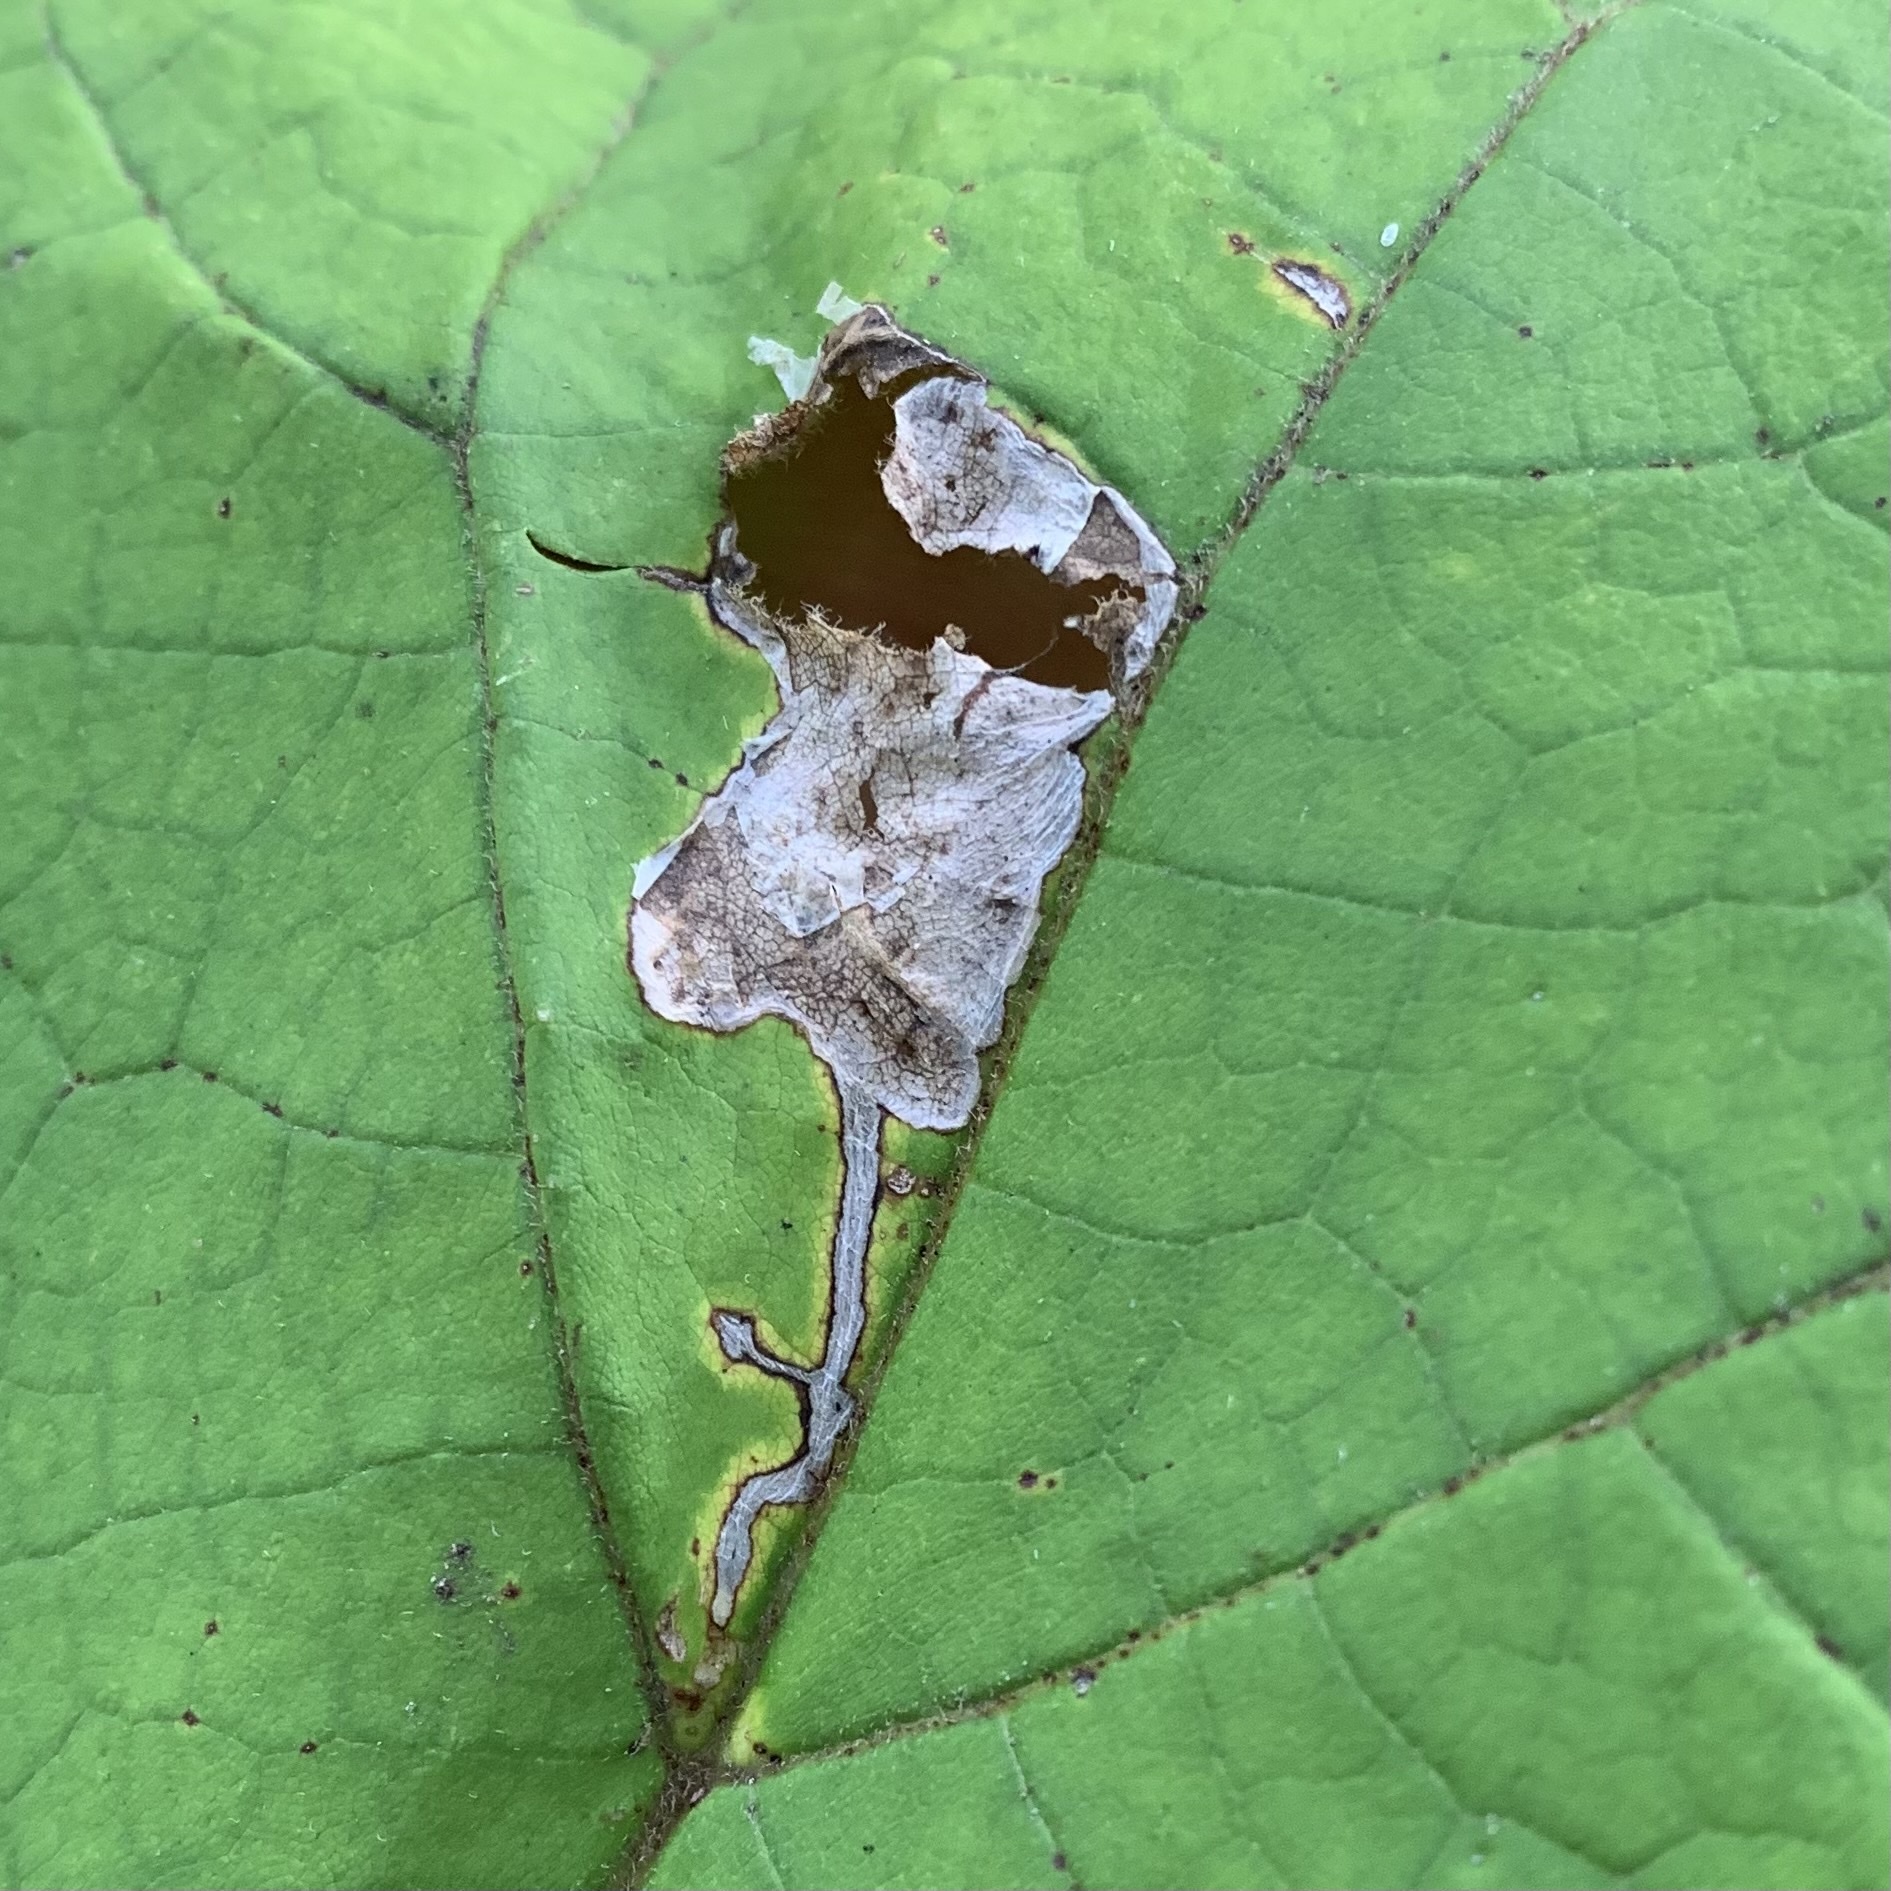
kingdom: Animalia
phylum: Arthropoda
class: Insecta
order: Diptera
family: Agromyzidae
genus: Amauromyza
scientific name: Amauromyza pleuralis
